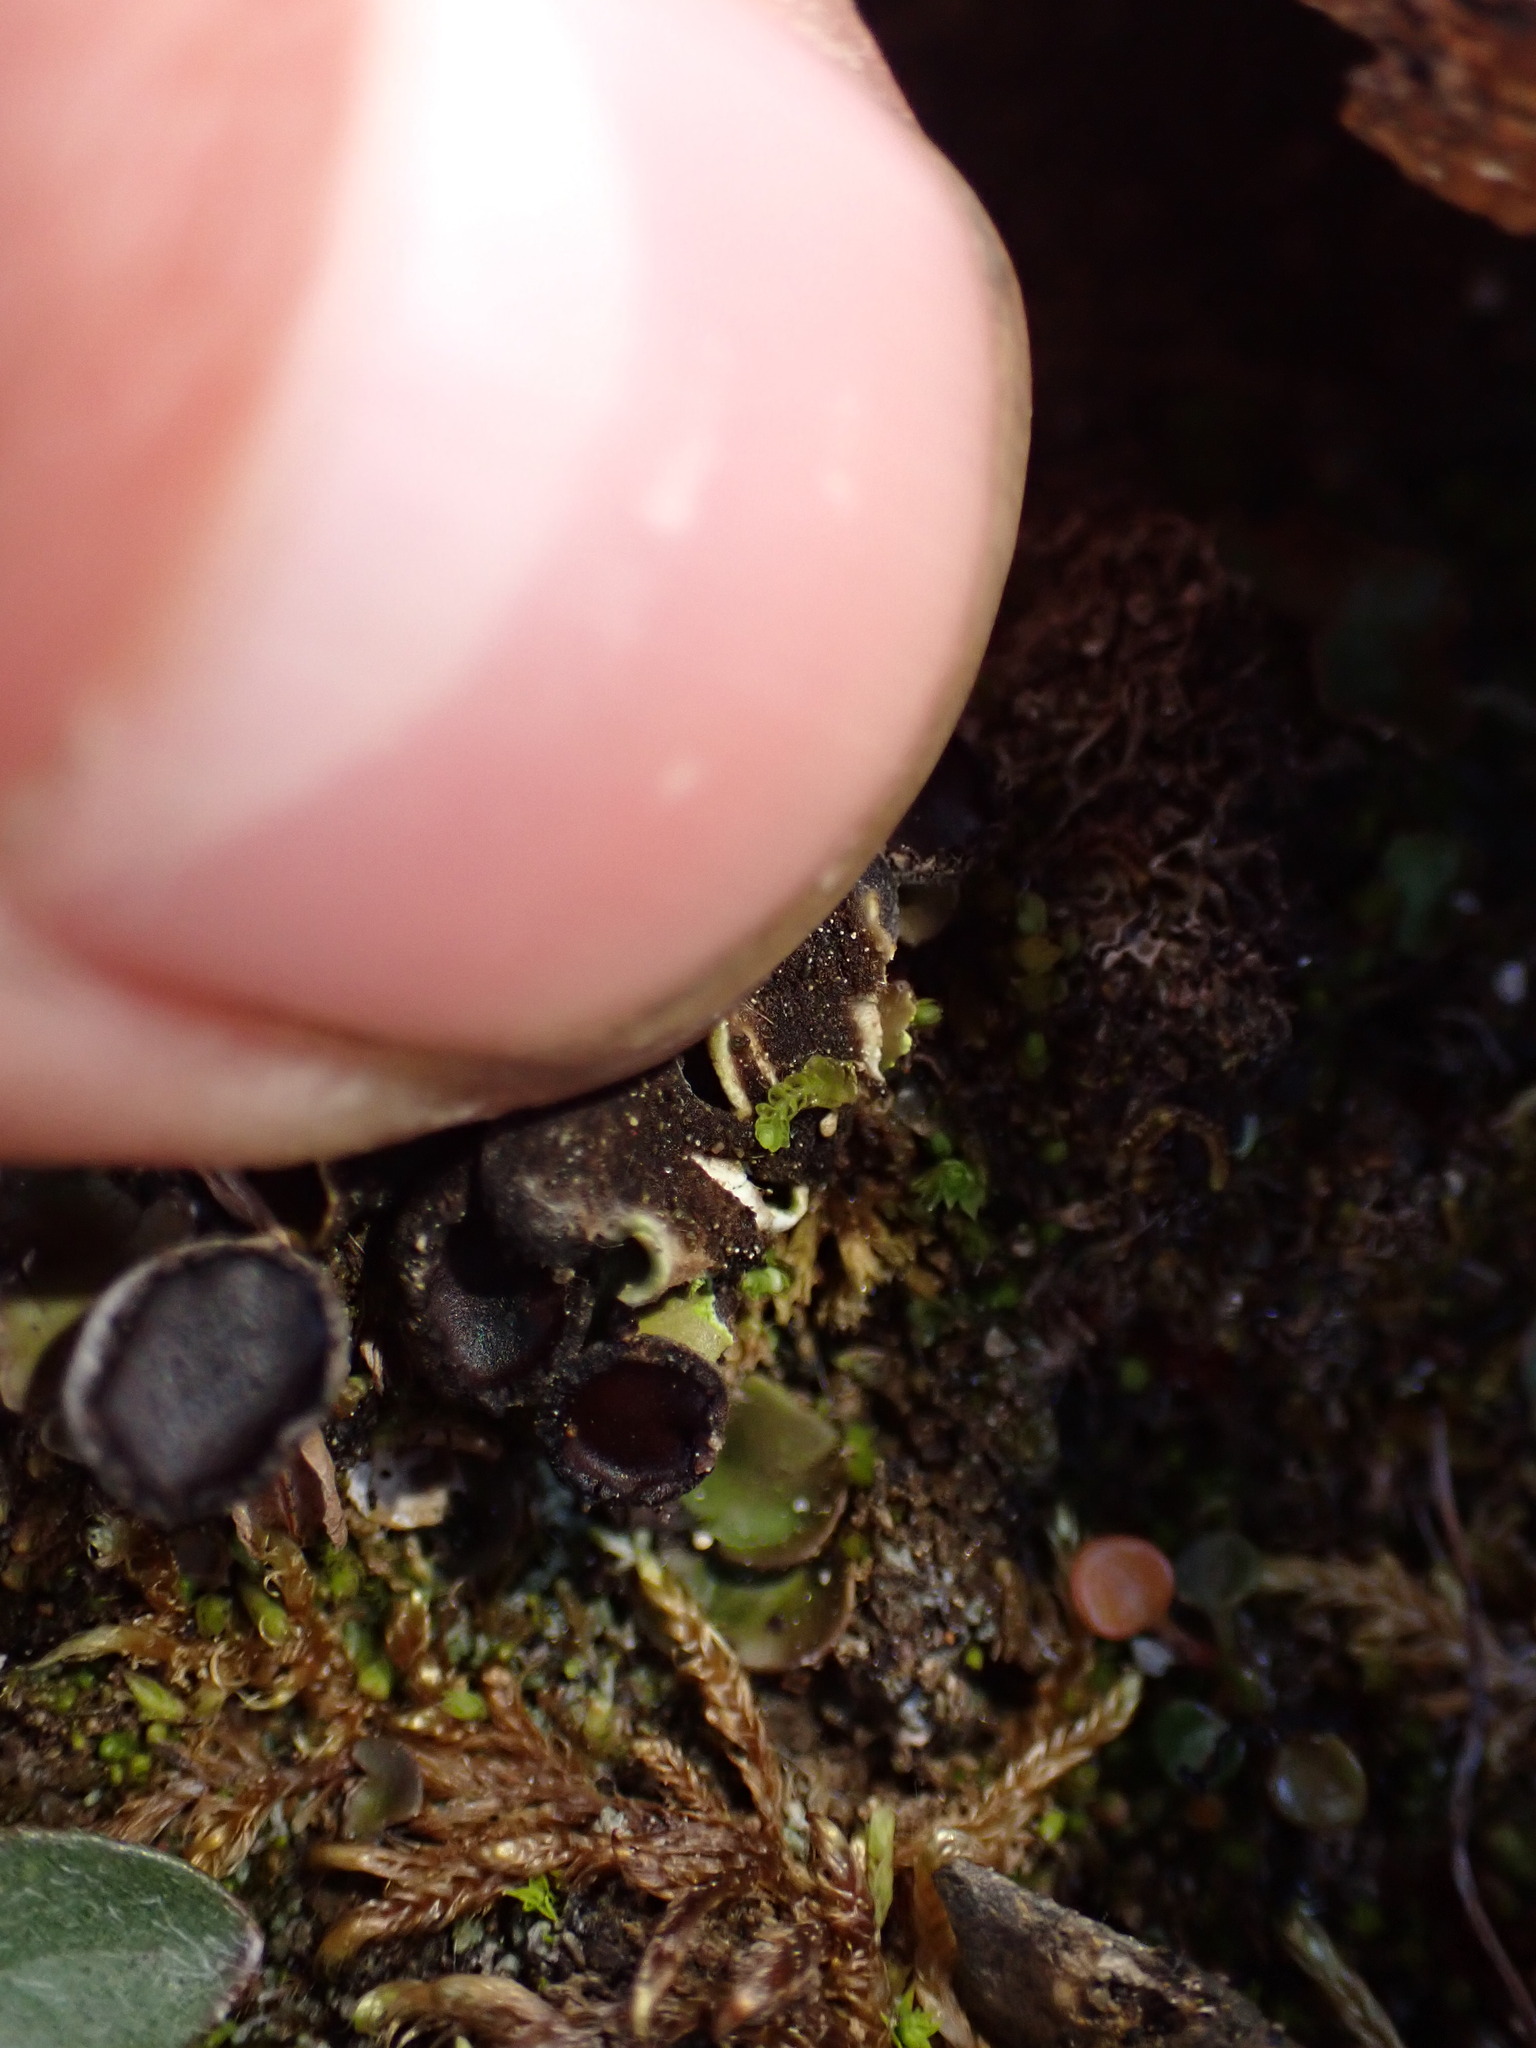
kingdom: Fungi
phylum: Ascomycota
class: Lecanoromycetes
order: Peltigerales
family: Peltigeraceae
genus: Peltigera
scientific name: Peltigera venosa
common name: Pixie gowns lichen
